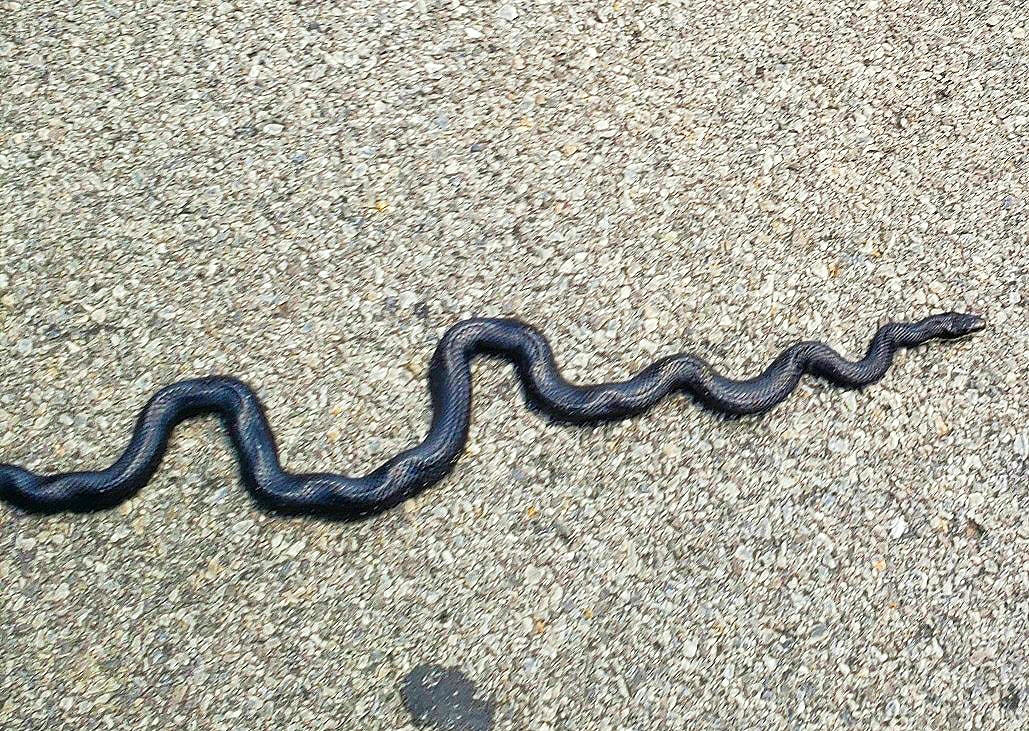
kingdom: Animalia
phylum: Chordata
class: Squamata
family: Colubridae
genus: Pantherophis
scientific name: Pantherophis alleghaniensis
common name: Eastern rat snake
